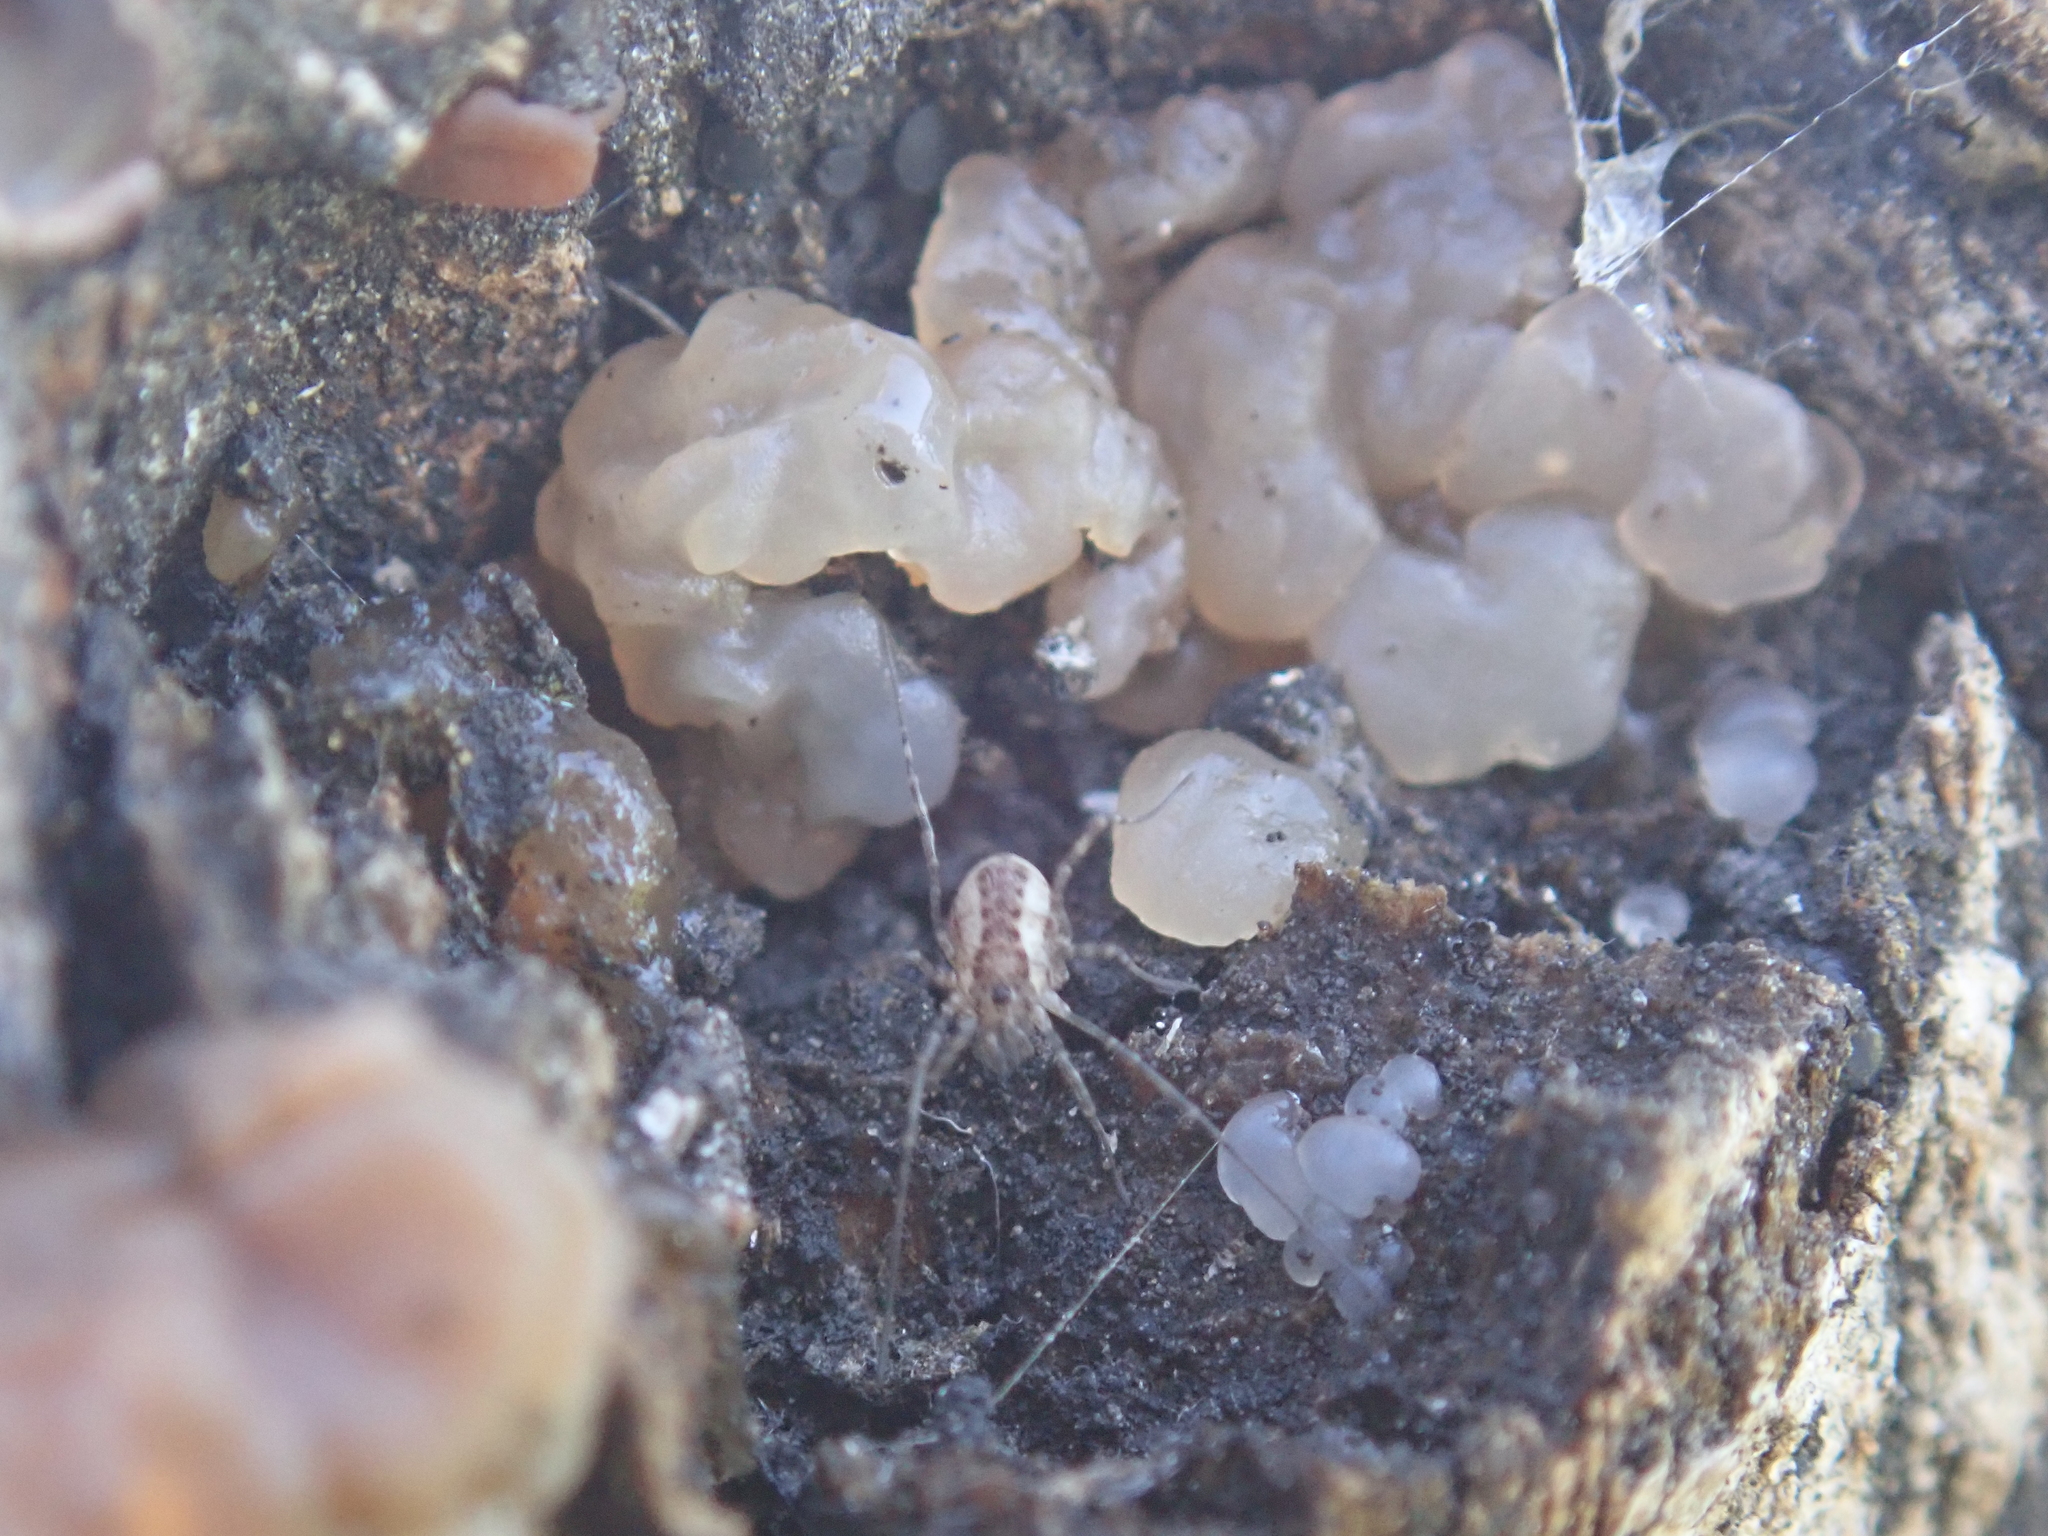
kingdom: Fungi
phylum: Basidiomycota
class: Agaricomycetes
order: Auriculariales
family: Hyaloriaceae
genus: Myxarium
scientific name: Myxarium nucleatum
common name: Crystal brain fungus
